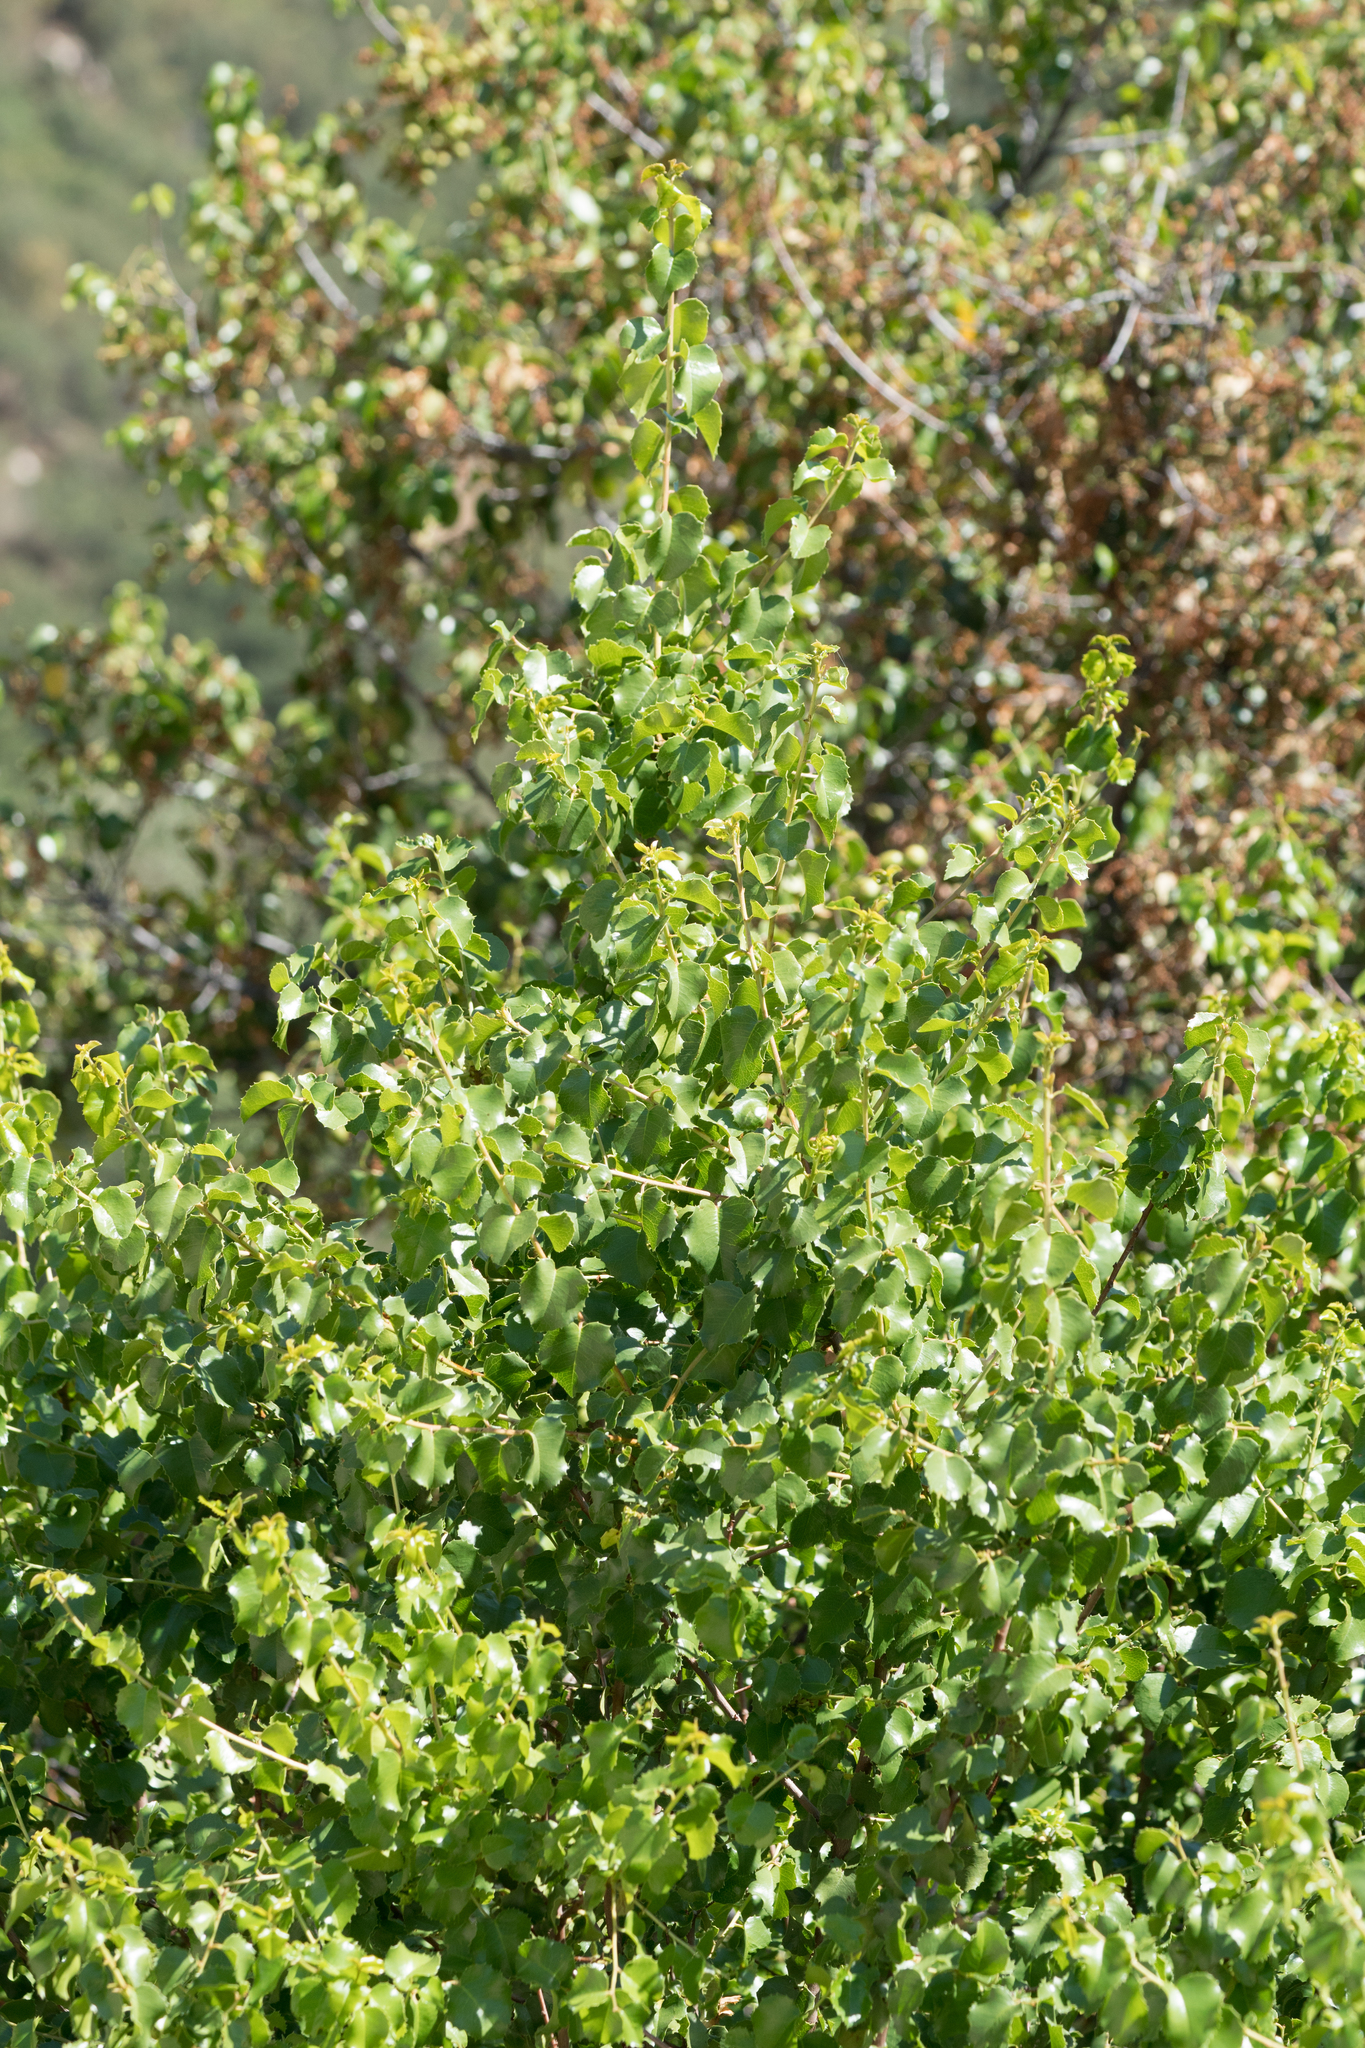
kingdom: Plantae
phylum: Tracheophyta
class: Magnoliopsida
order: Rosales
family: Rosaceae
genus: Prunus
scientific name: Prunus ilicifolia
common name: Hollyleaf cherry
